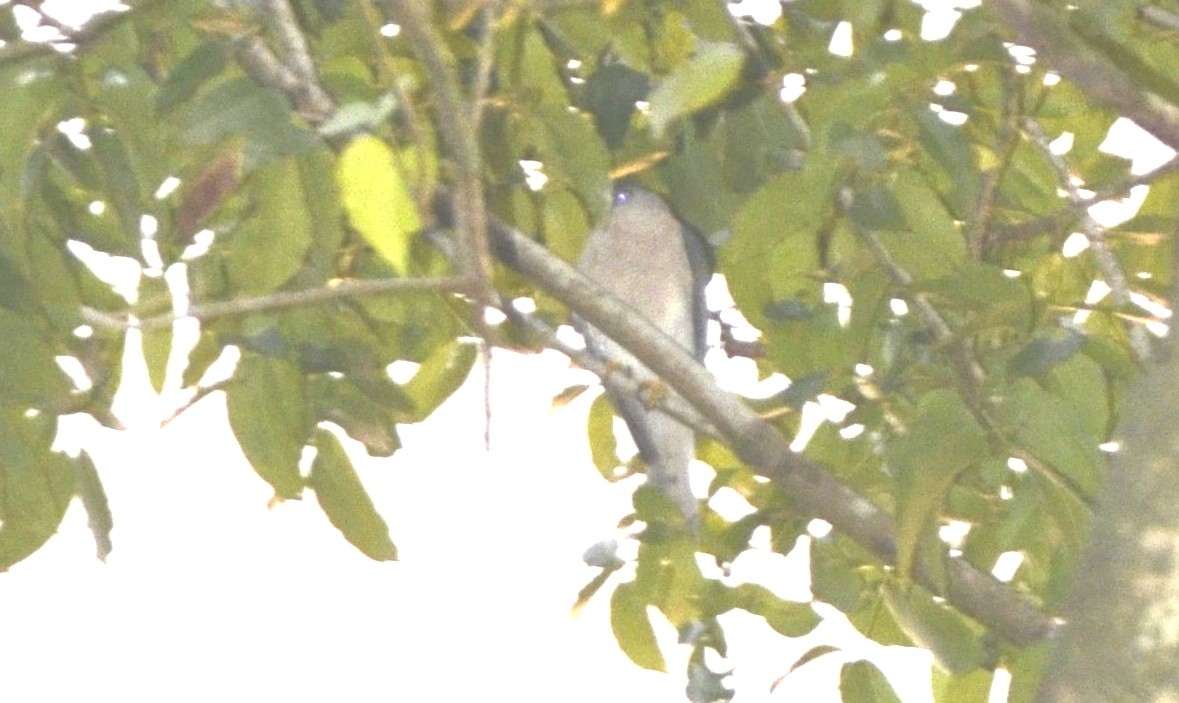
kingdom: Animalia
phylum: Chordata
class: Aves
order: Accipitriformes
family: Accipitridae
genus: Accipiter
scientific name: Accipiter badius
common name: Shikra
